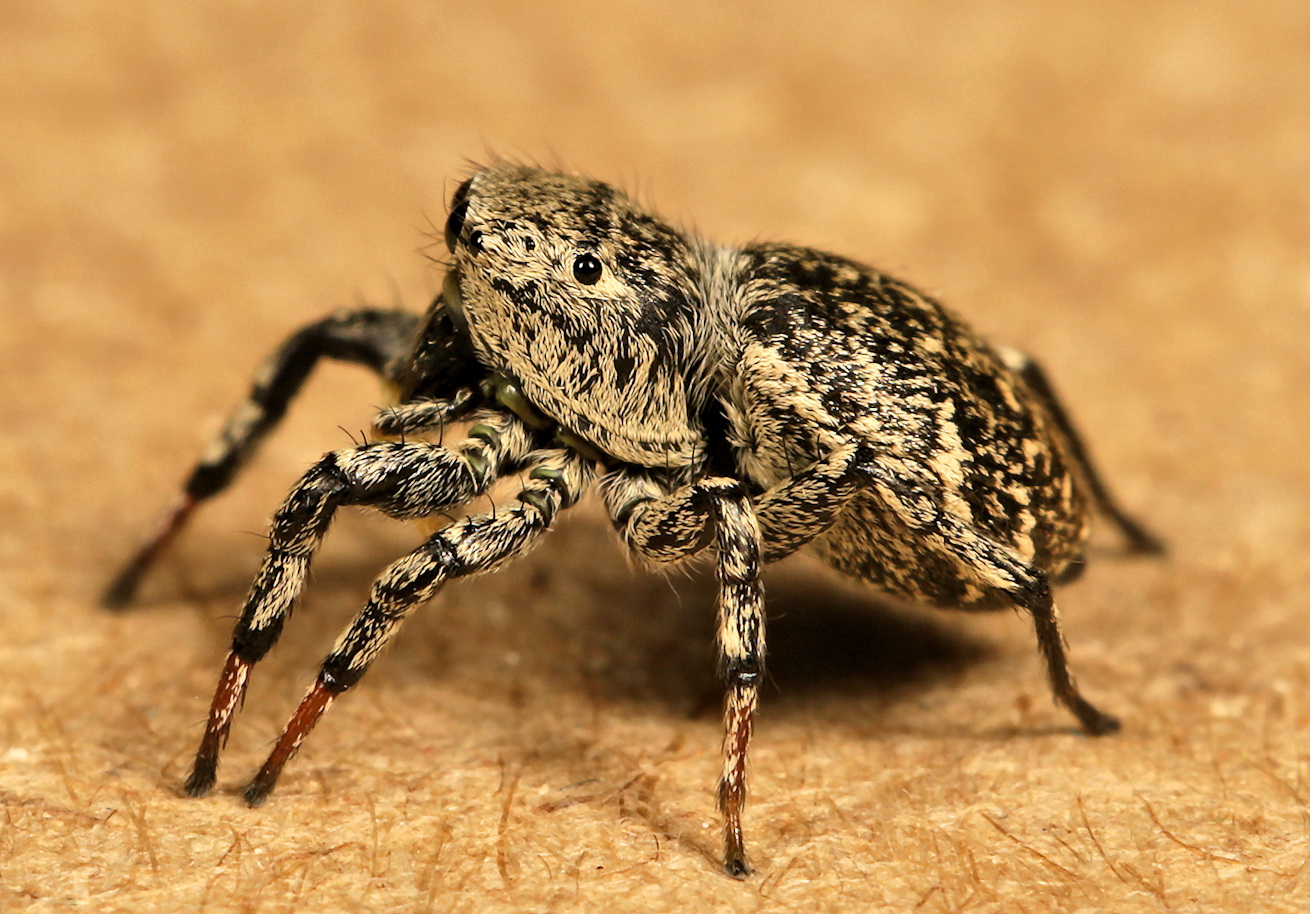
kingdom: Animalia
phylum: Arthropoda
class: Arachnida
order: Araneae
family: Salticidae
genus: Heliophanus
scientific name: Heliophanus
